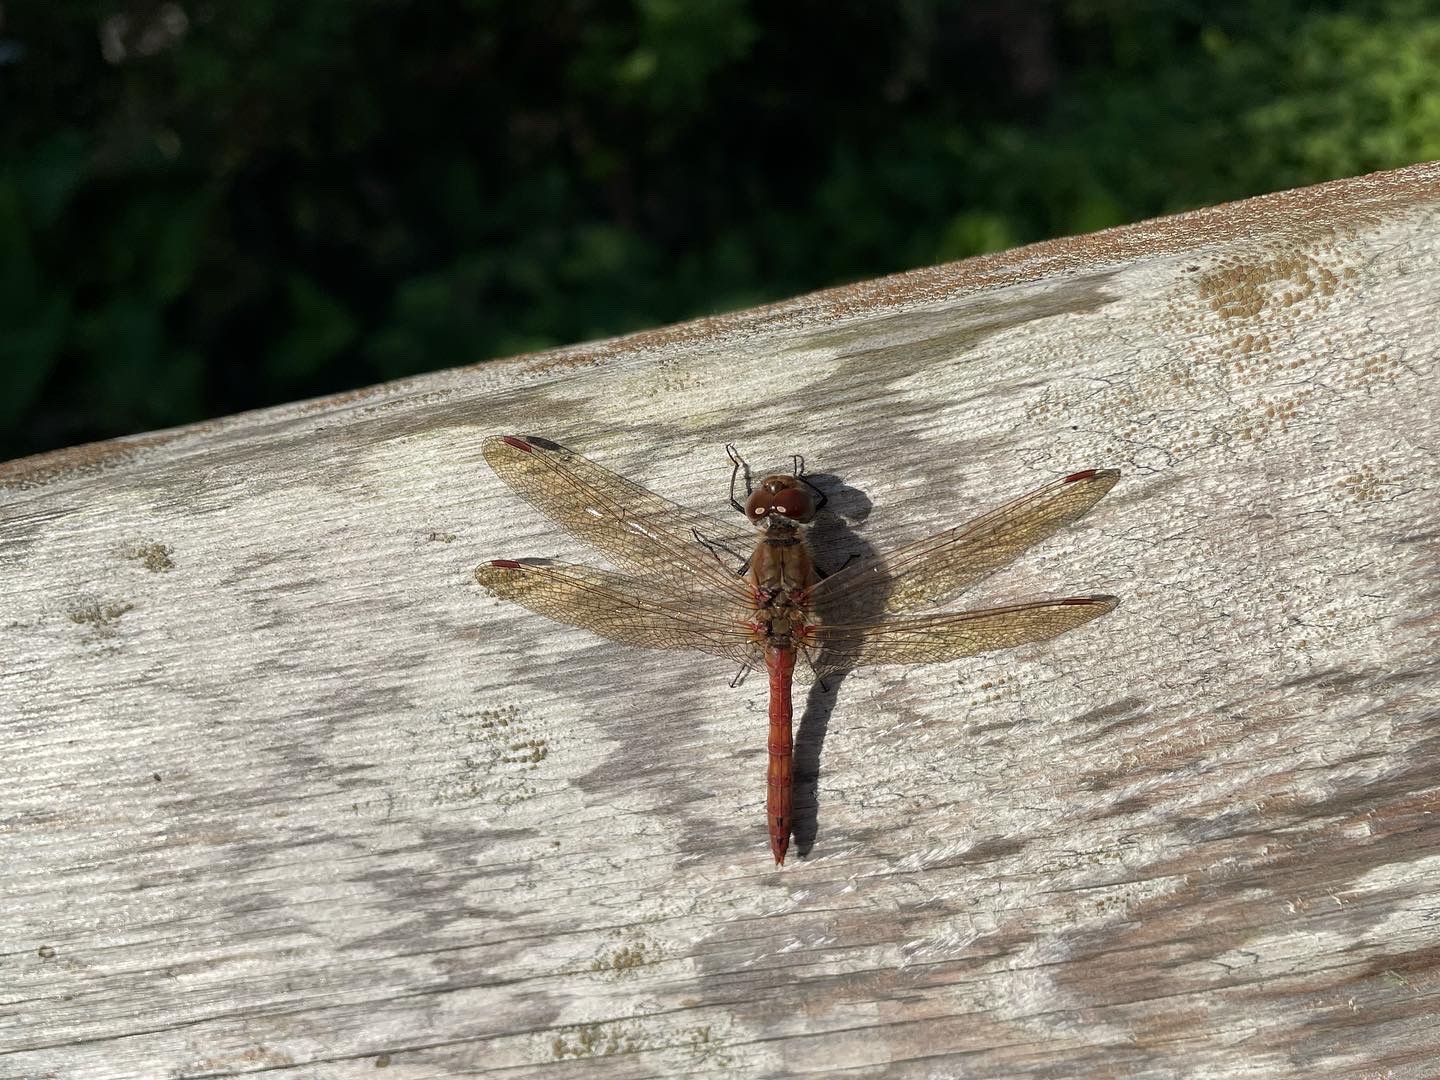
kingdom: Animalia
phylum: Arthropoda
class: Insecta
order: Odonata
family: Libellulidae
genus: Sympetrum
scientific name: Sympetrum striolatum
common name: Common darter
